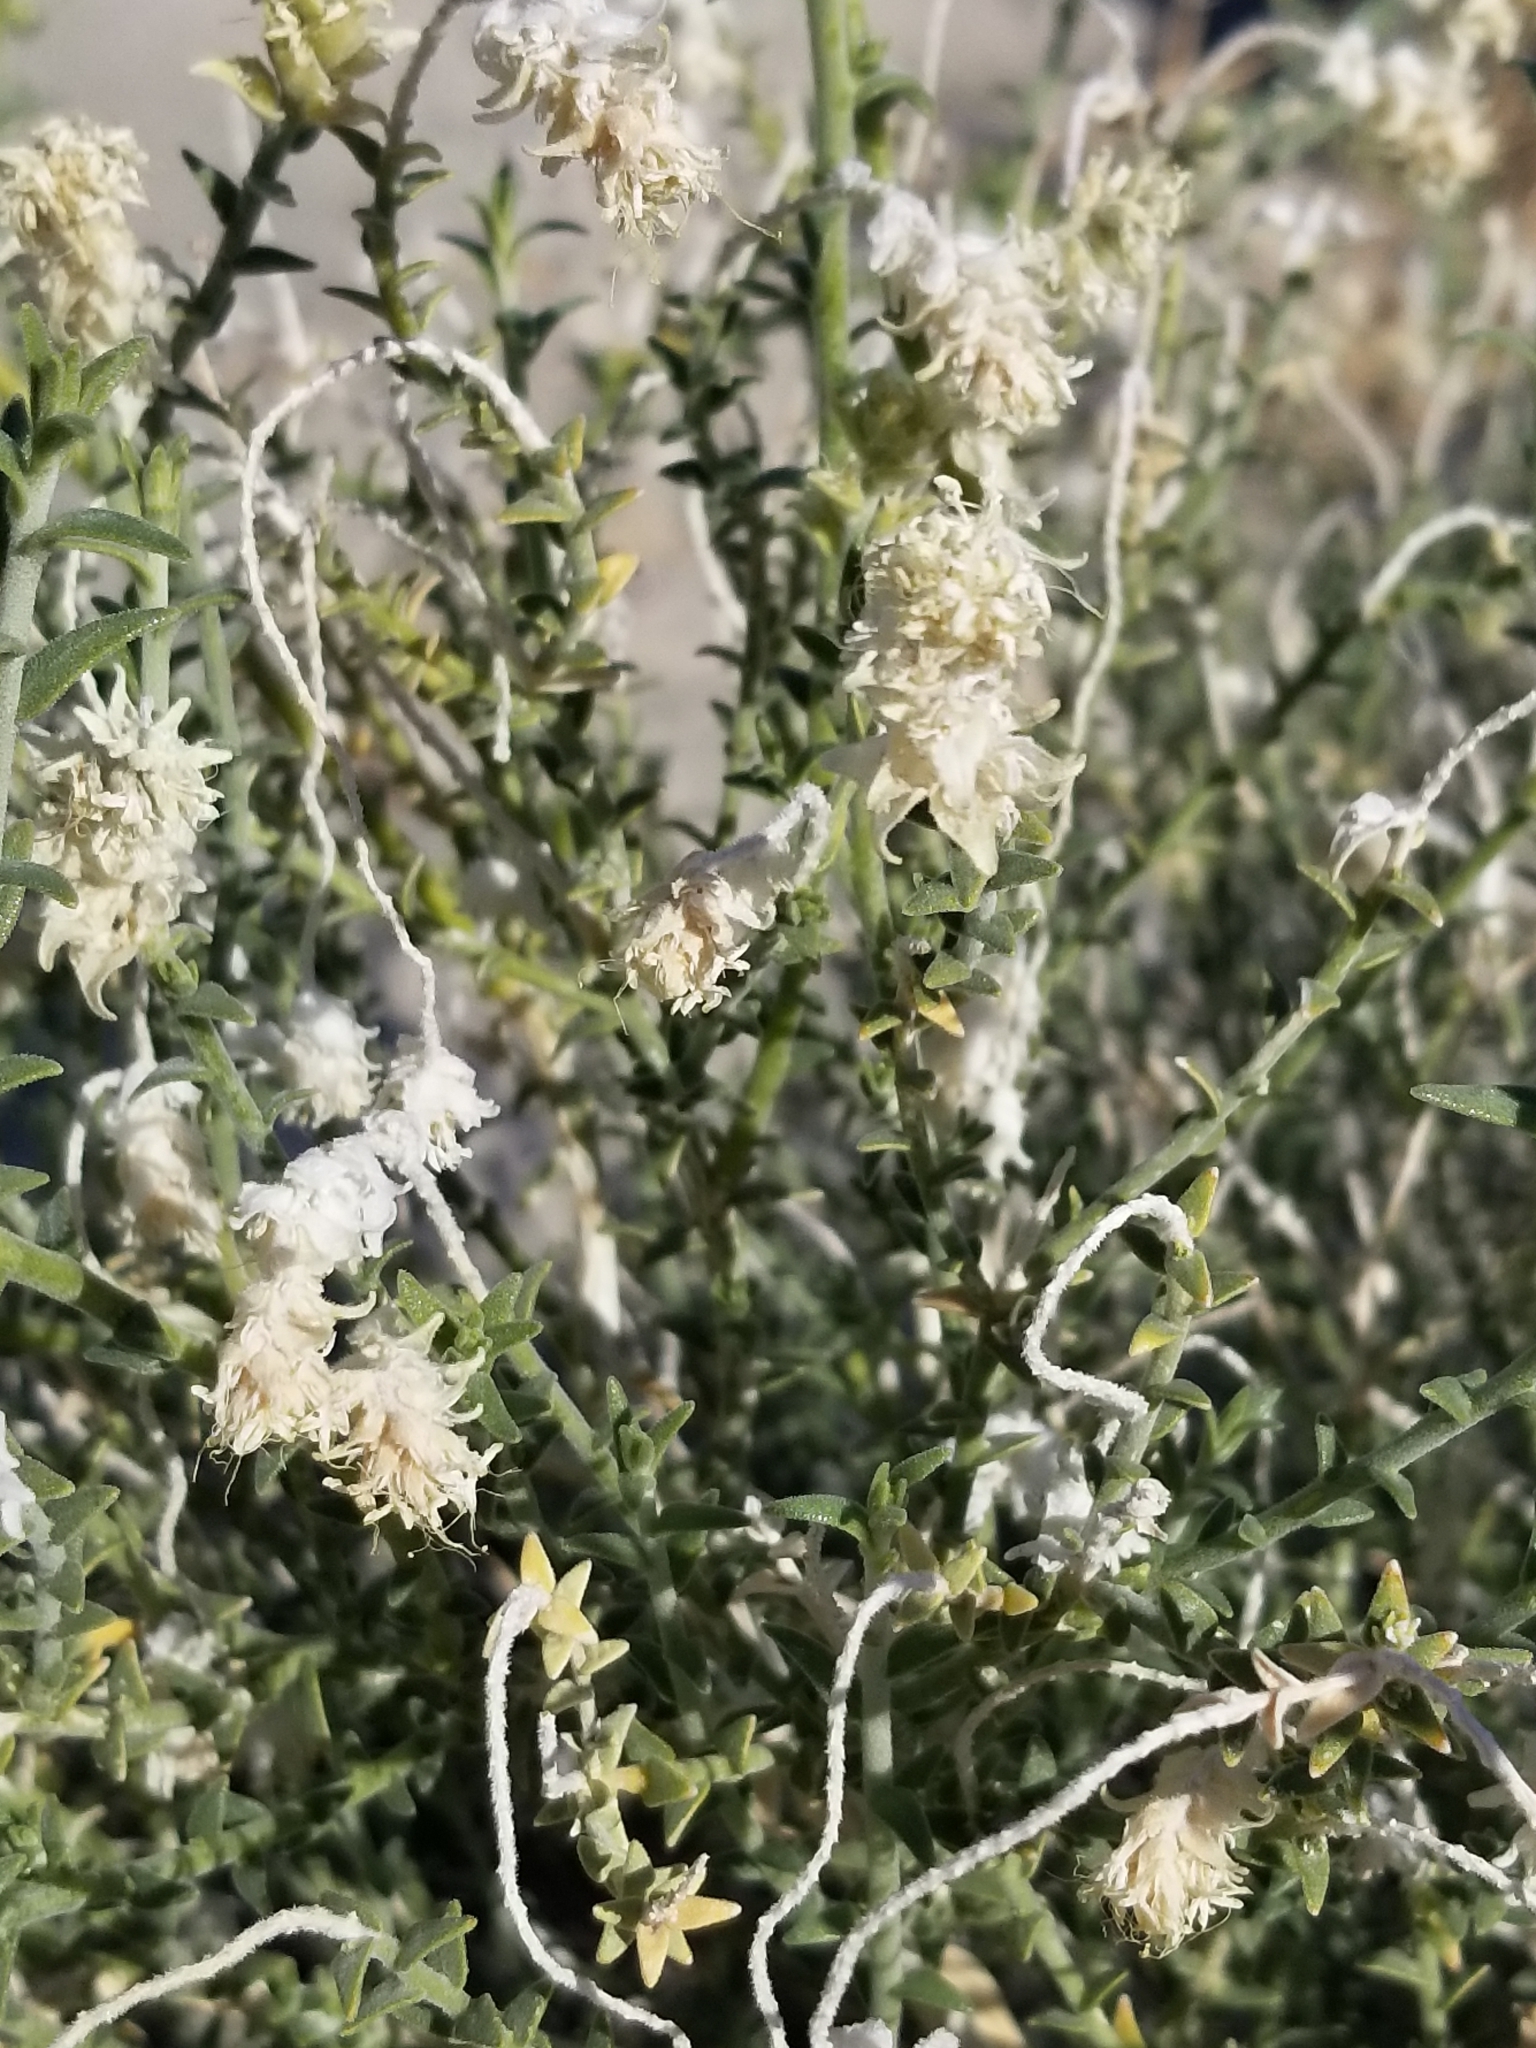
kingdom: Plantae
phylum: Tracheophyta
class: Magnoliopsida
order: Cornales
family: Loasaceae
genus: Petalonyx
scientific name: Petalonyx thurberi
